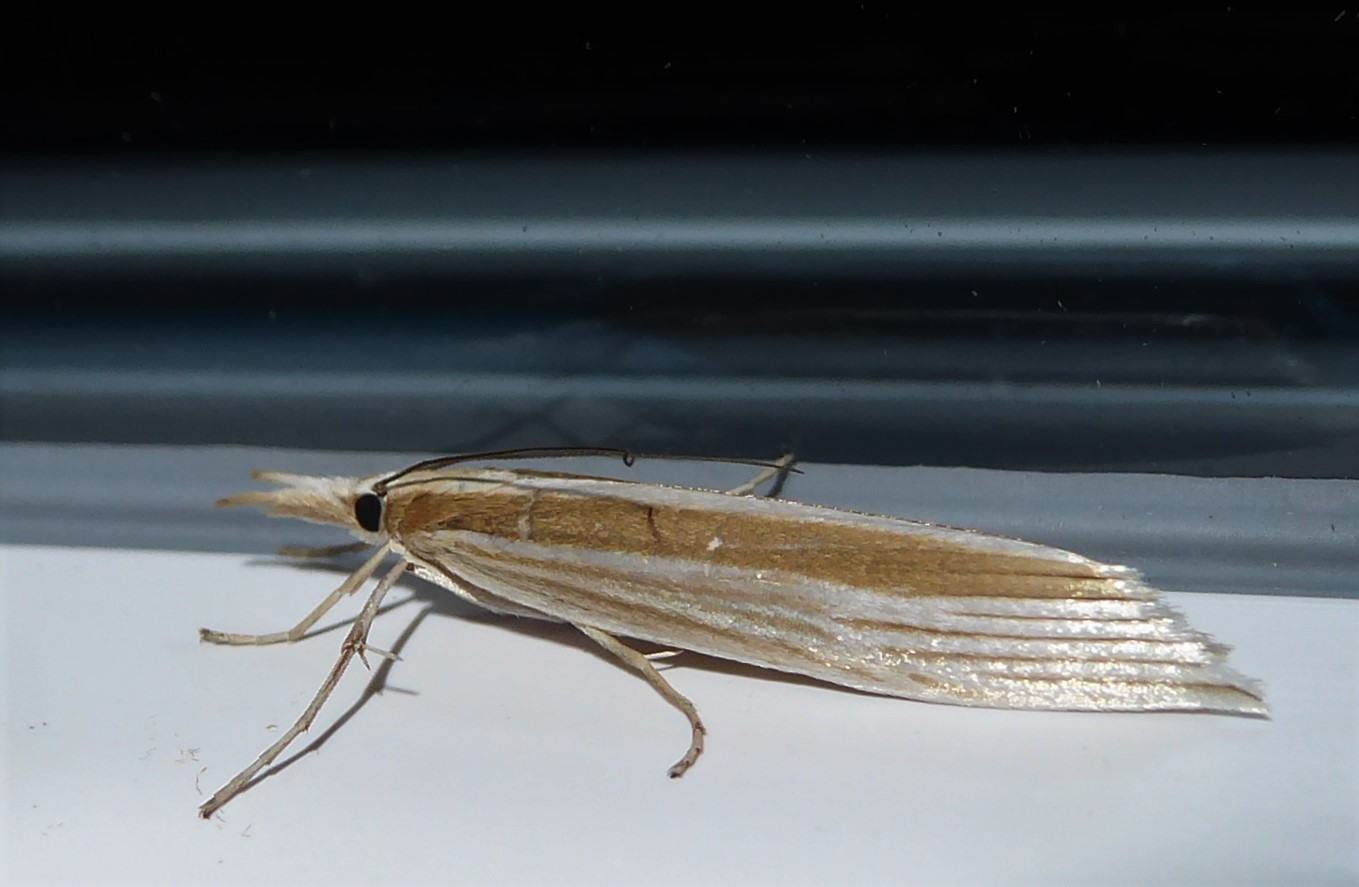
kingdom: Animalia
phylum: Arthropoda
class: Insecta
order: Lepidoptera
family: Crambidae
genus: Orocrambus
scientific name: Orocrambus angustipennis
